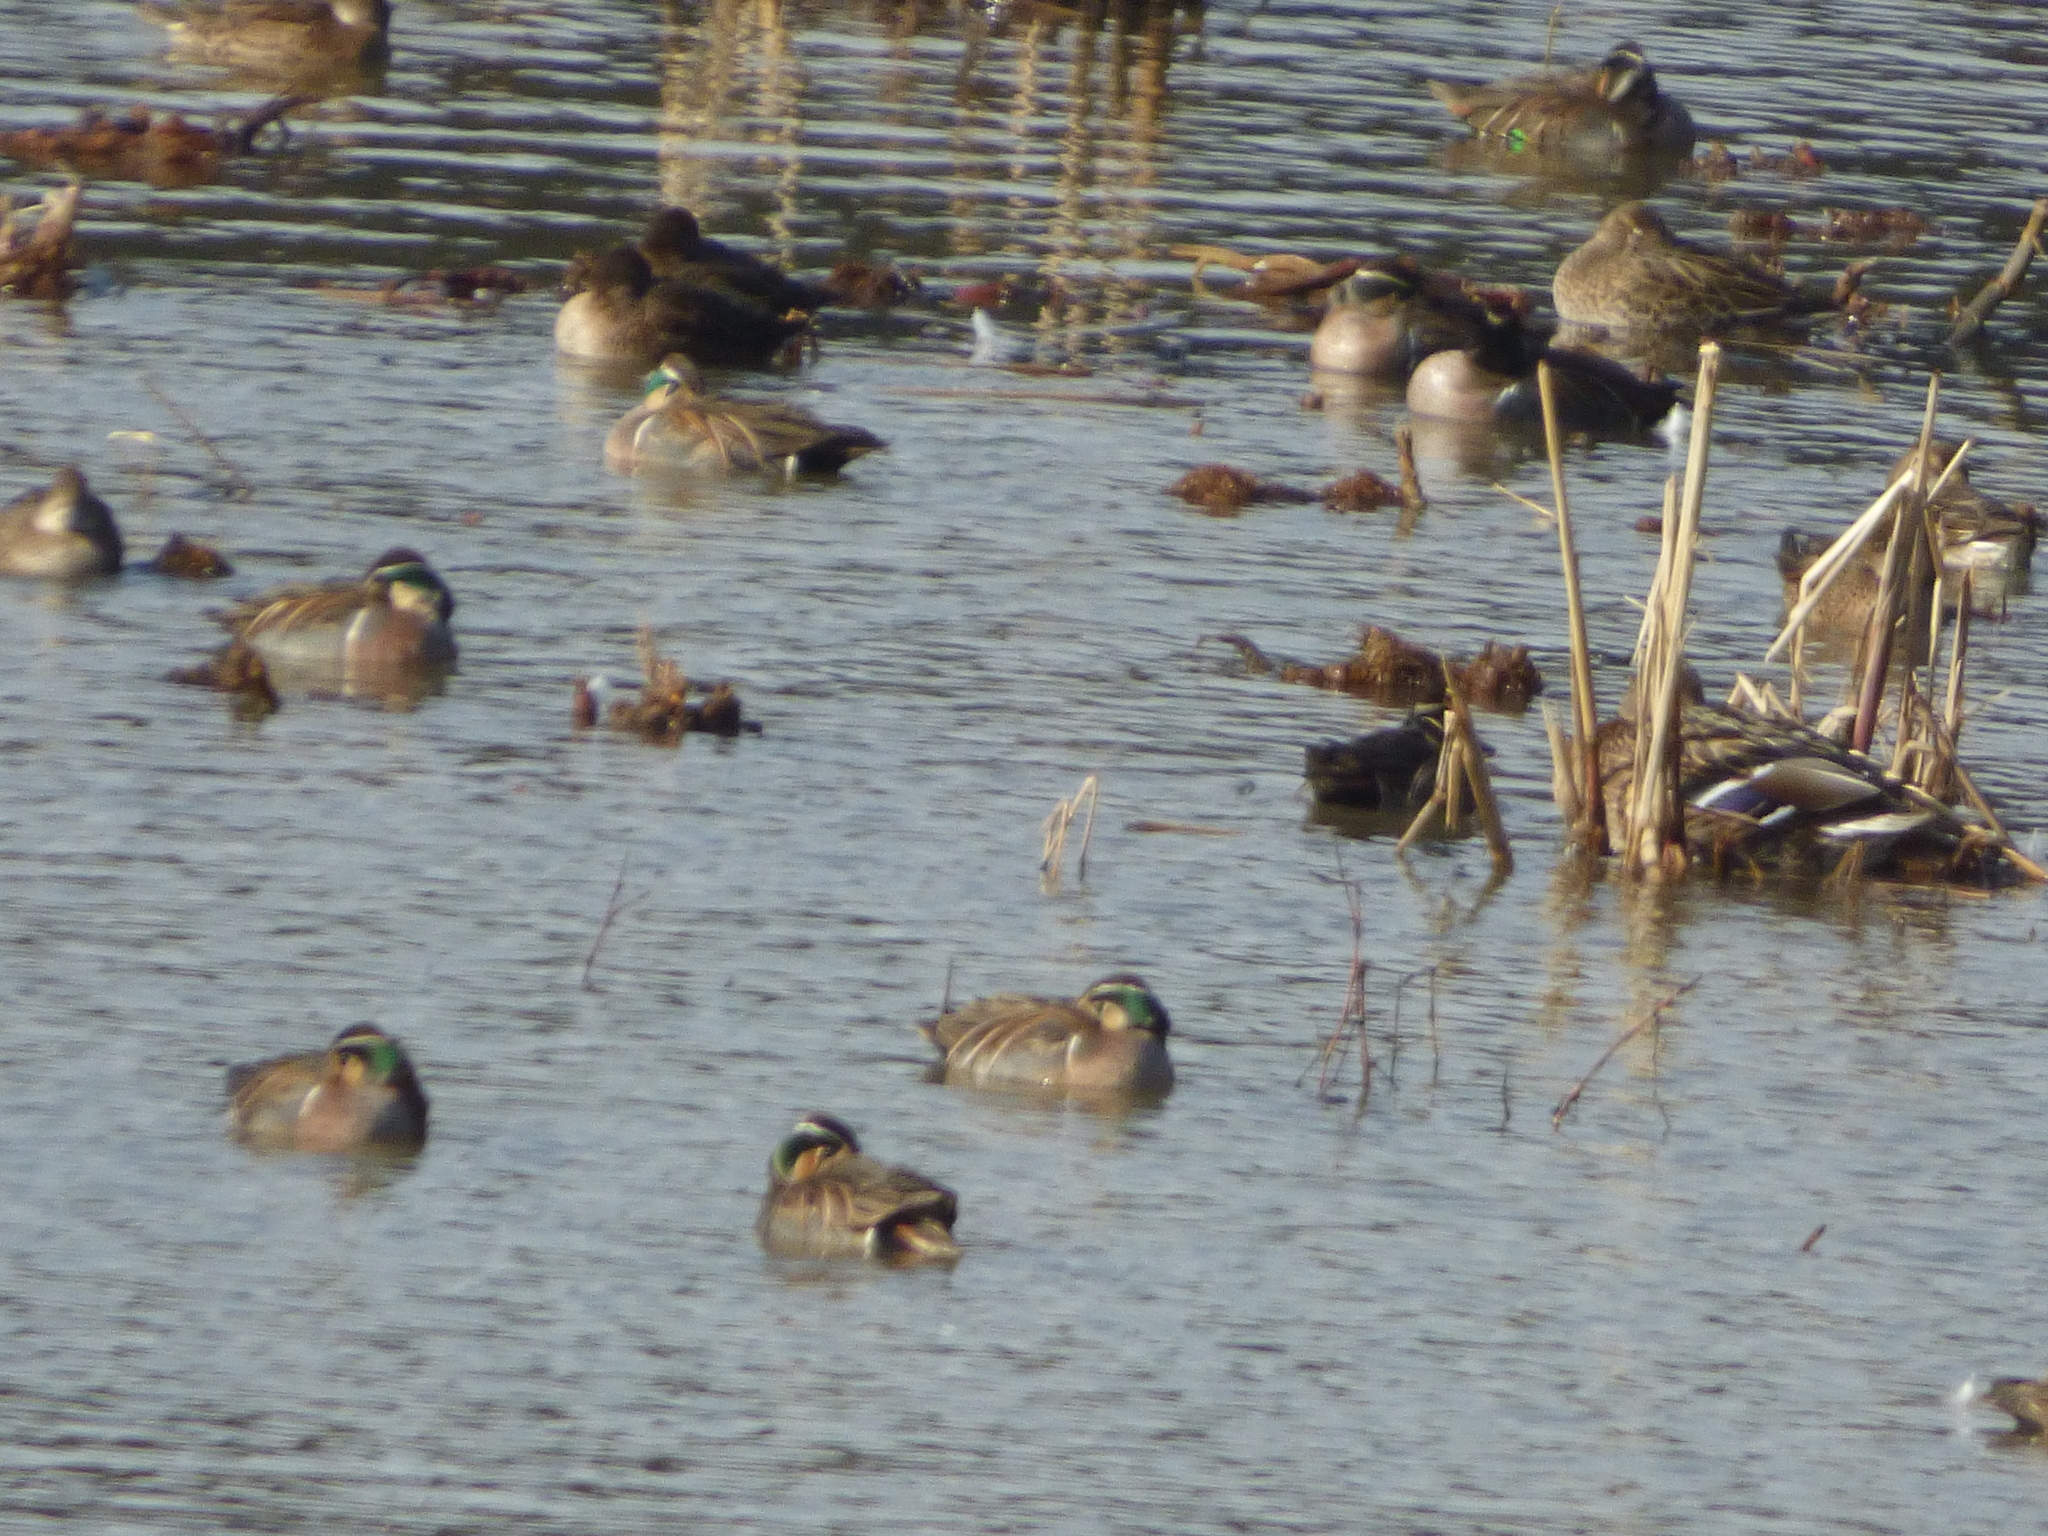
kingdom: Animalia
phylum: Chordata
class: Aves
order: Anseriformes
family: Anatidae
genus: Anas
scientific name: Anas platyrhynchos
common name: Mallard
